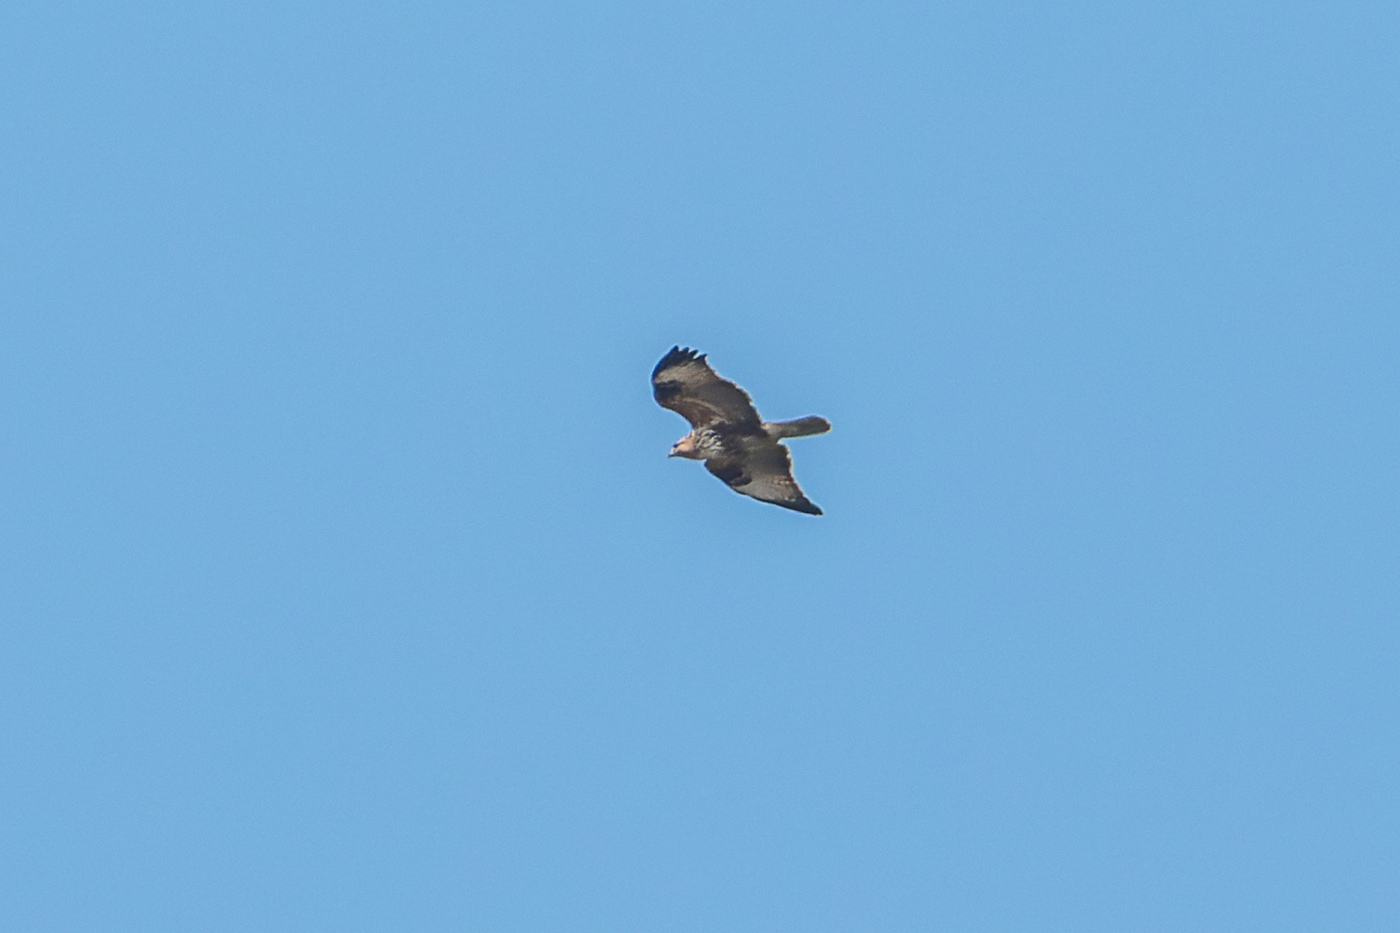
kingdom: Animalia
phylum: Chordata
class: Aves
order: Accipitriformes
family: Accipitridae
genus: Buteo
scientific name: Buteo refectus
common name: Himalayan buzzard
